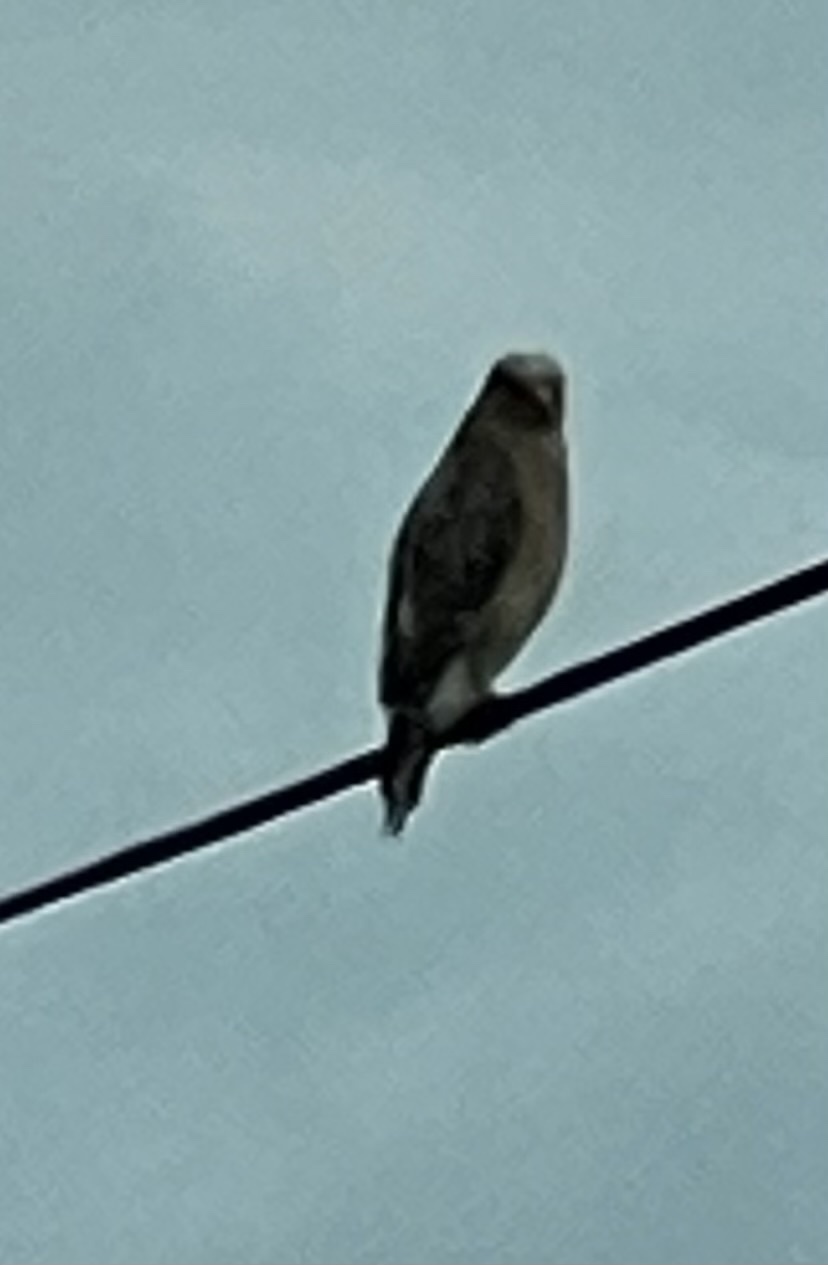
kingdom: Animalia
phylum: Chordata
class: Aves
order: Accipitriformes
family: Accipitridae
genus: Buteo
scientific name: Buteo jamaicensis
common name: Red-tailed hawk
